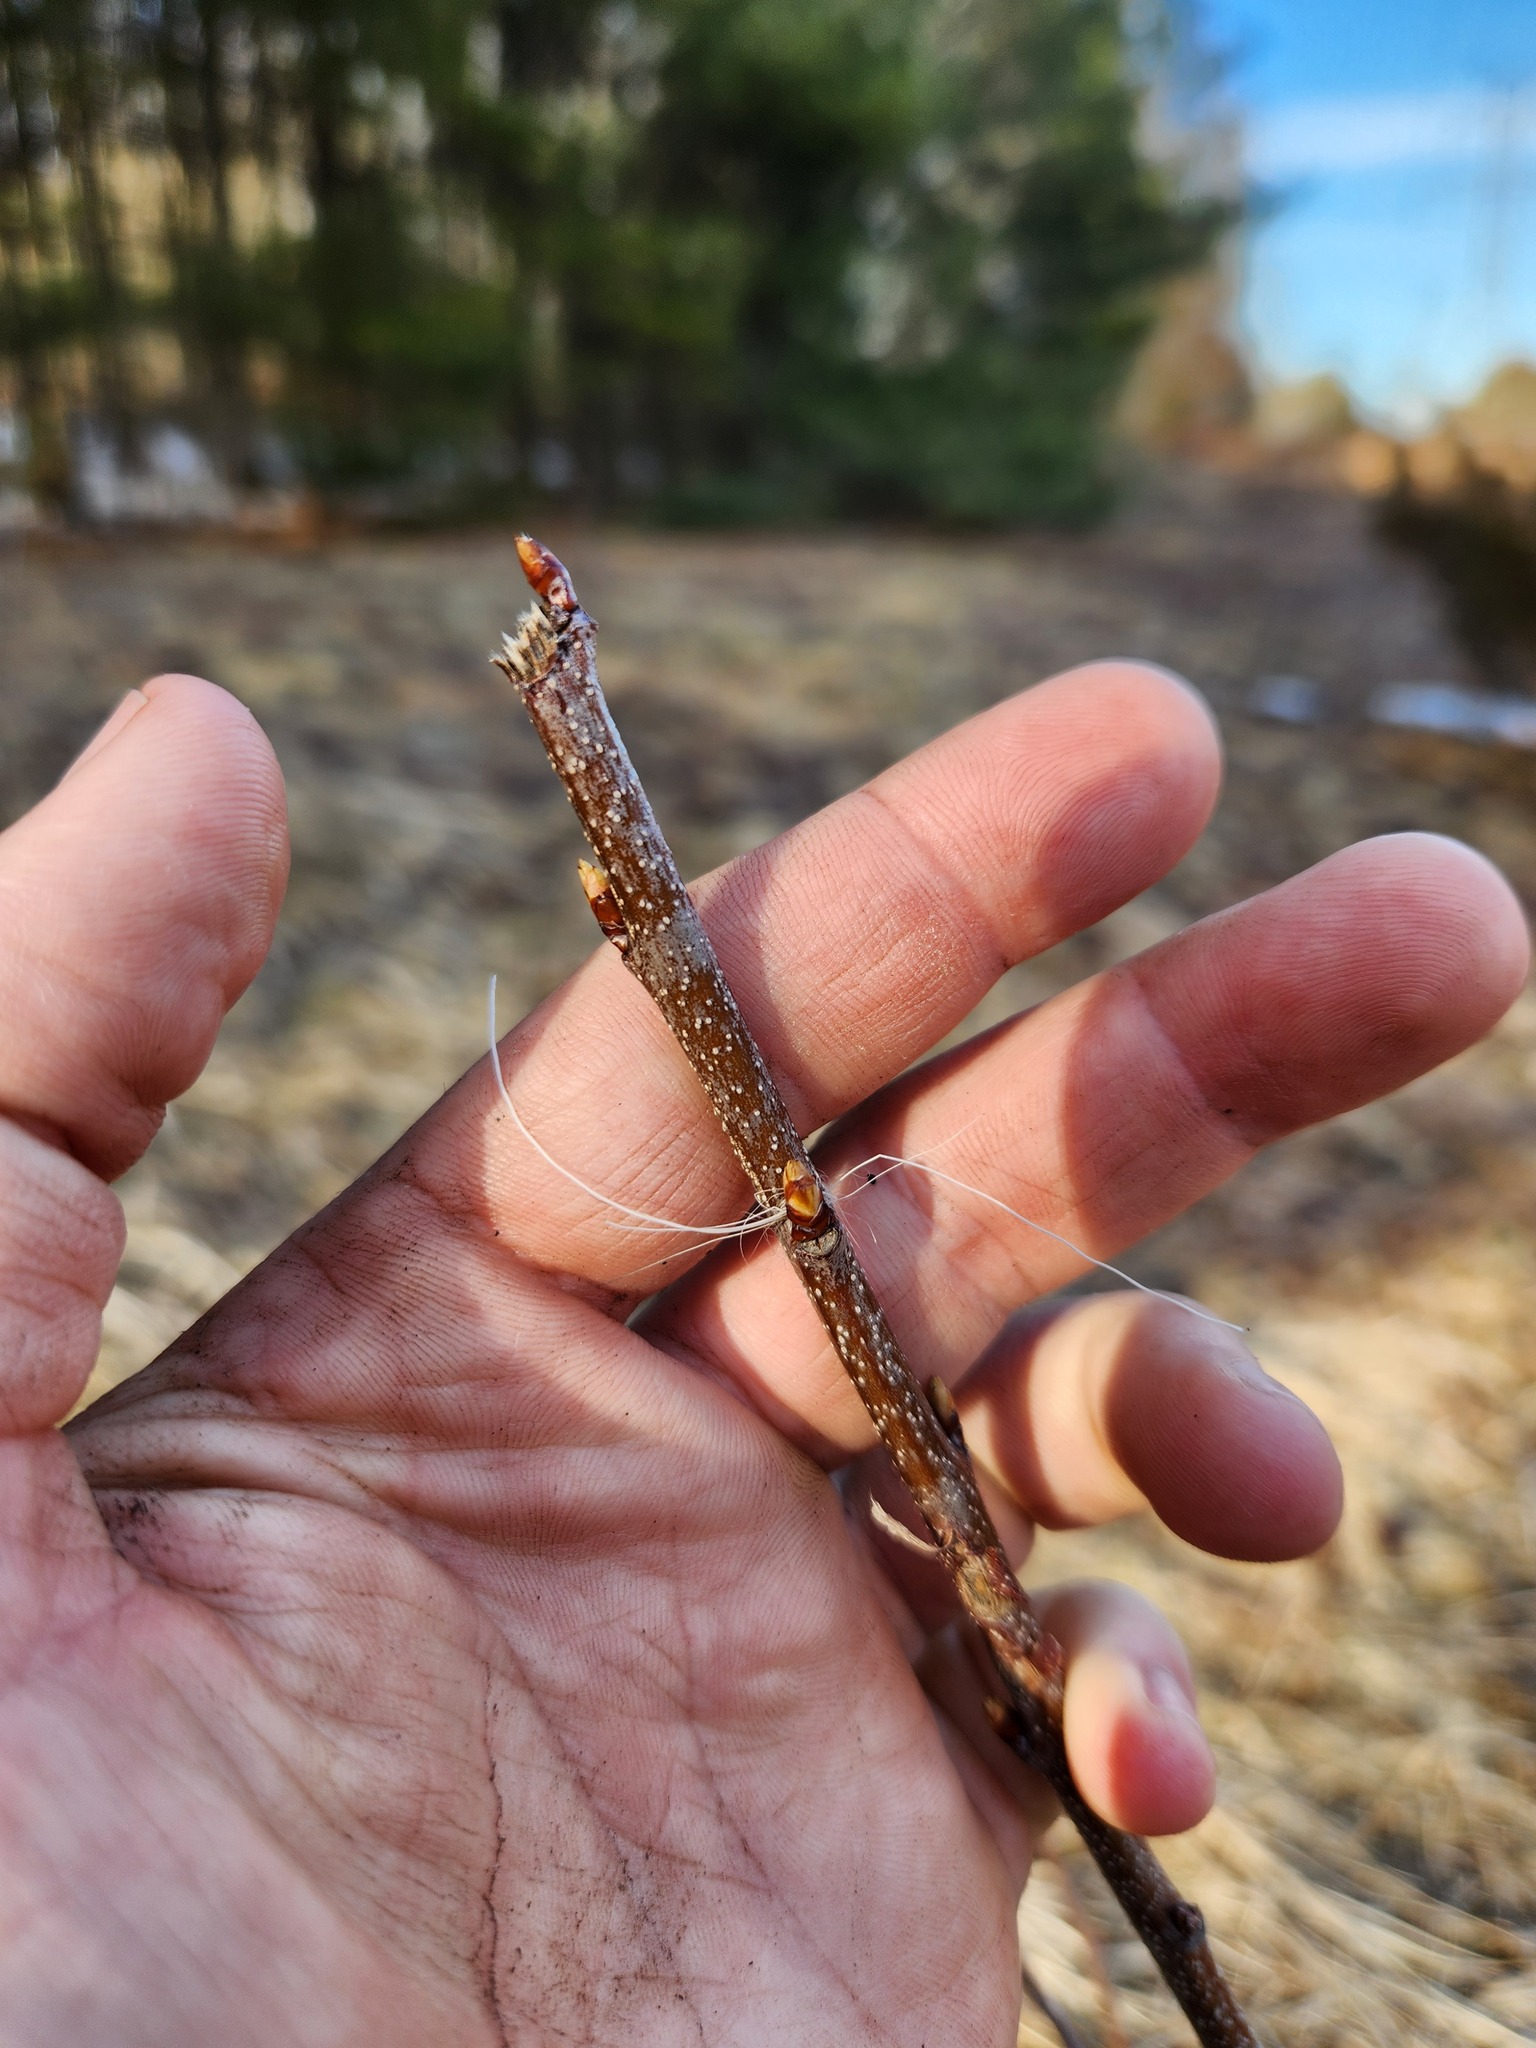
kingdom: Animalia
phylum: Chordata
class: Mammalia
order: Artiodactyla
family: Cervidae
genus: Odocoileus
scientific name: Odocoileus virginianus
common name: White-tailed deer
